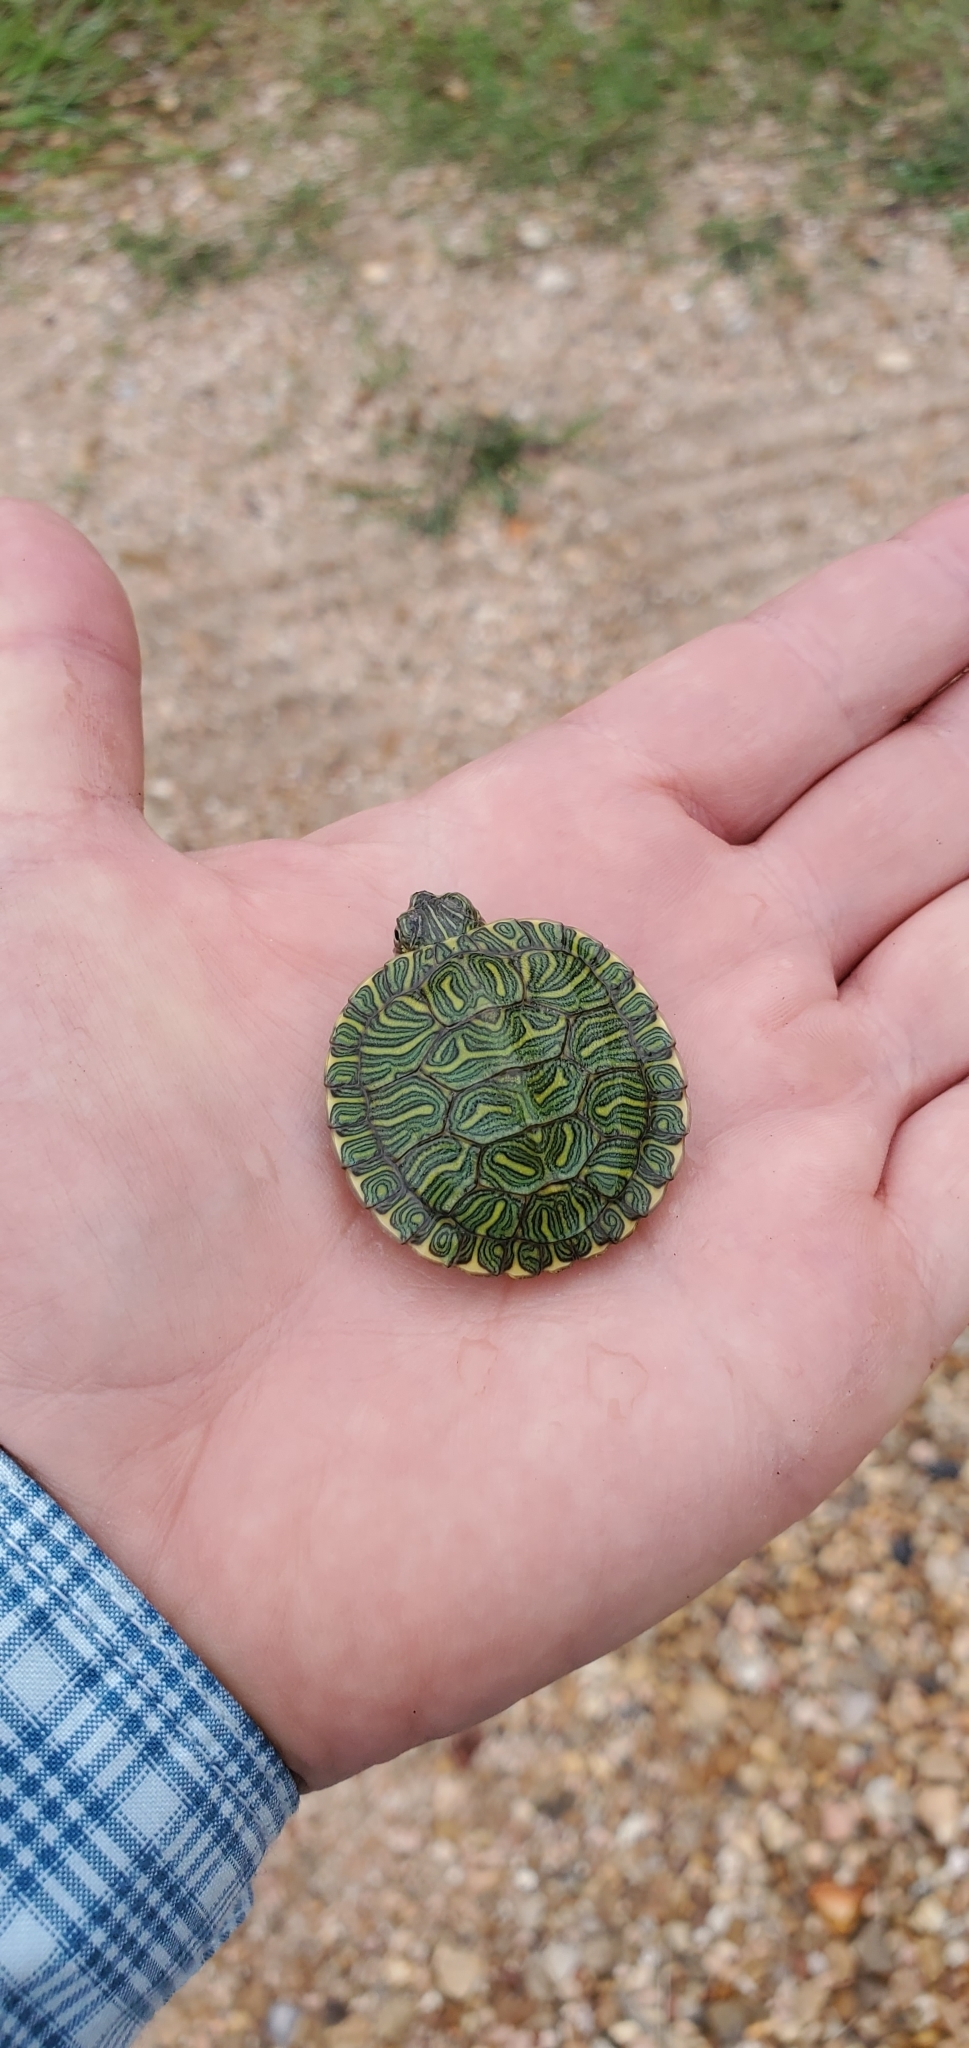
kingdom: Animalia
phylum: Chordata
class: Testudines
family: Emydidae
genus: Trachemys
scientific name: Trachemys scripta
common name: Slider
